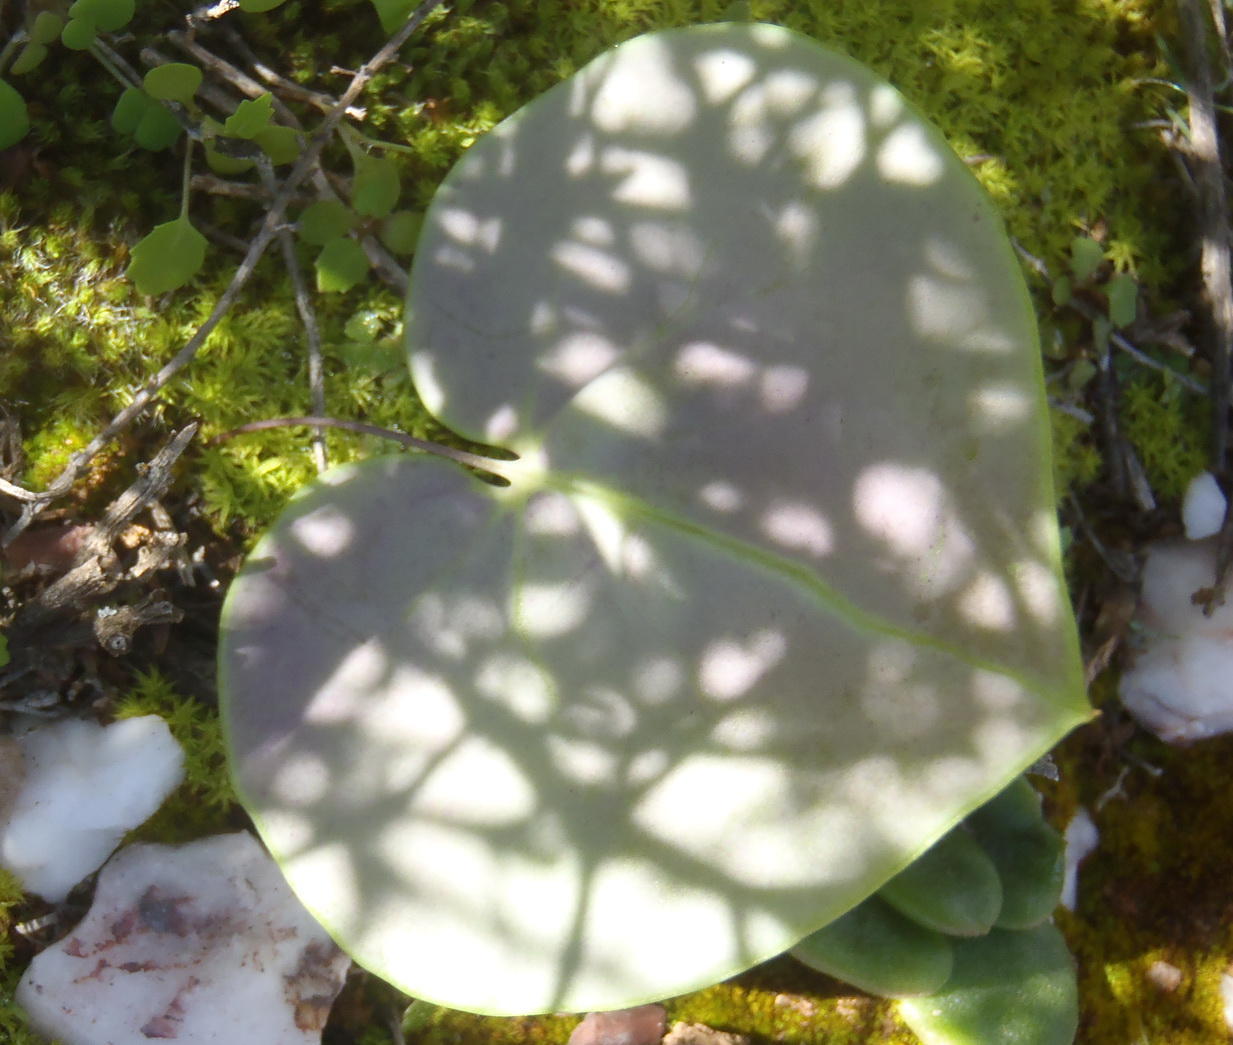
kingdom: Plantae
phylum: Tracheophyta
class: Magnoliopsida
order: Asterales
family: Asteraceae
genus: Othonna
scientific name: Othonna perfoliata
